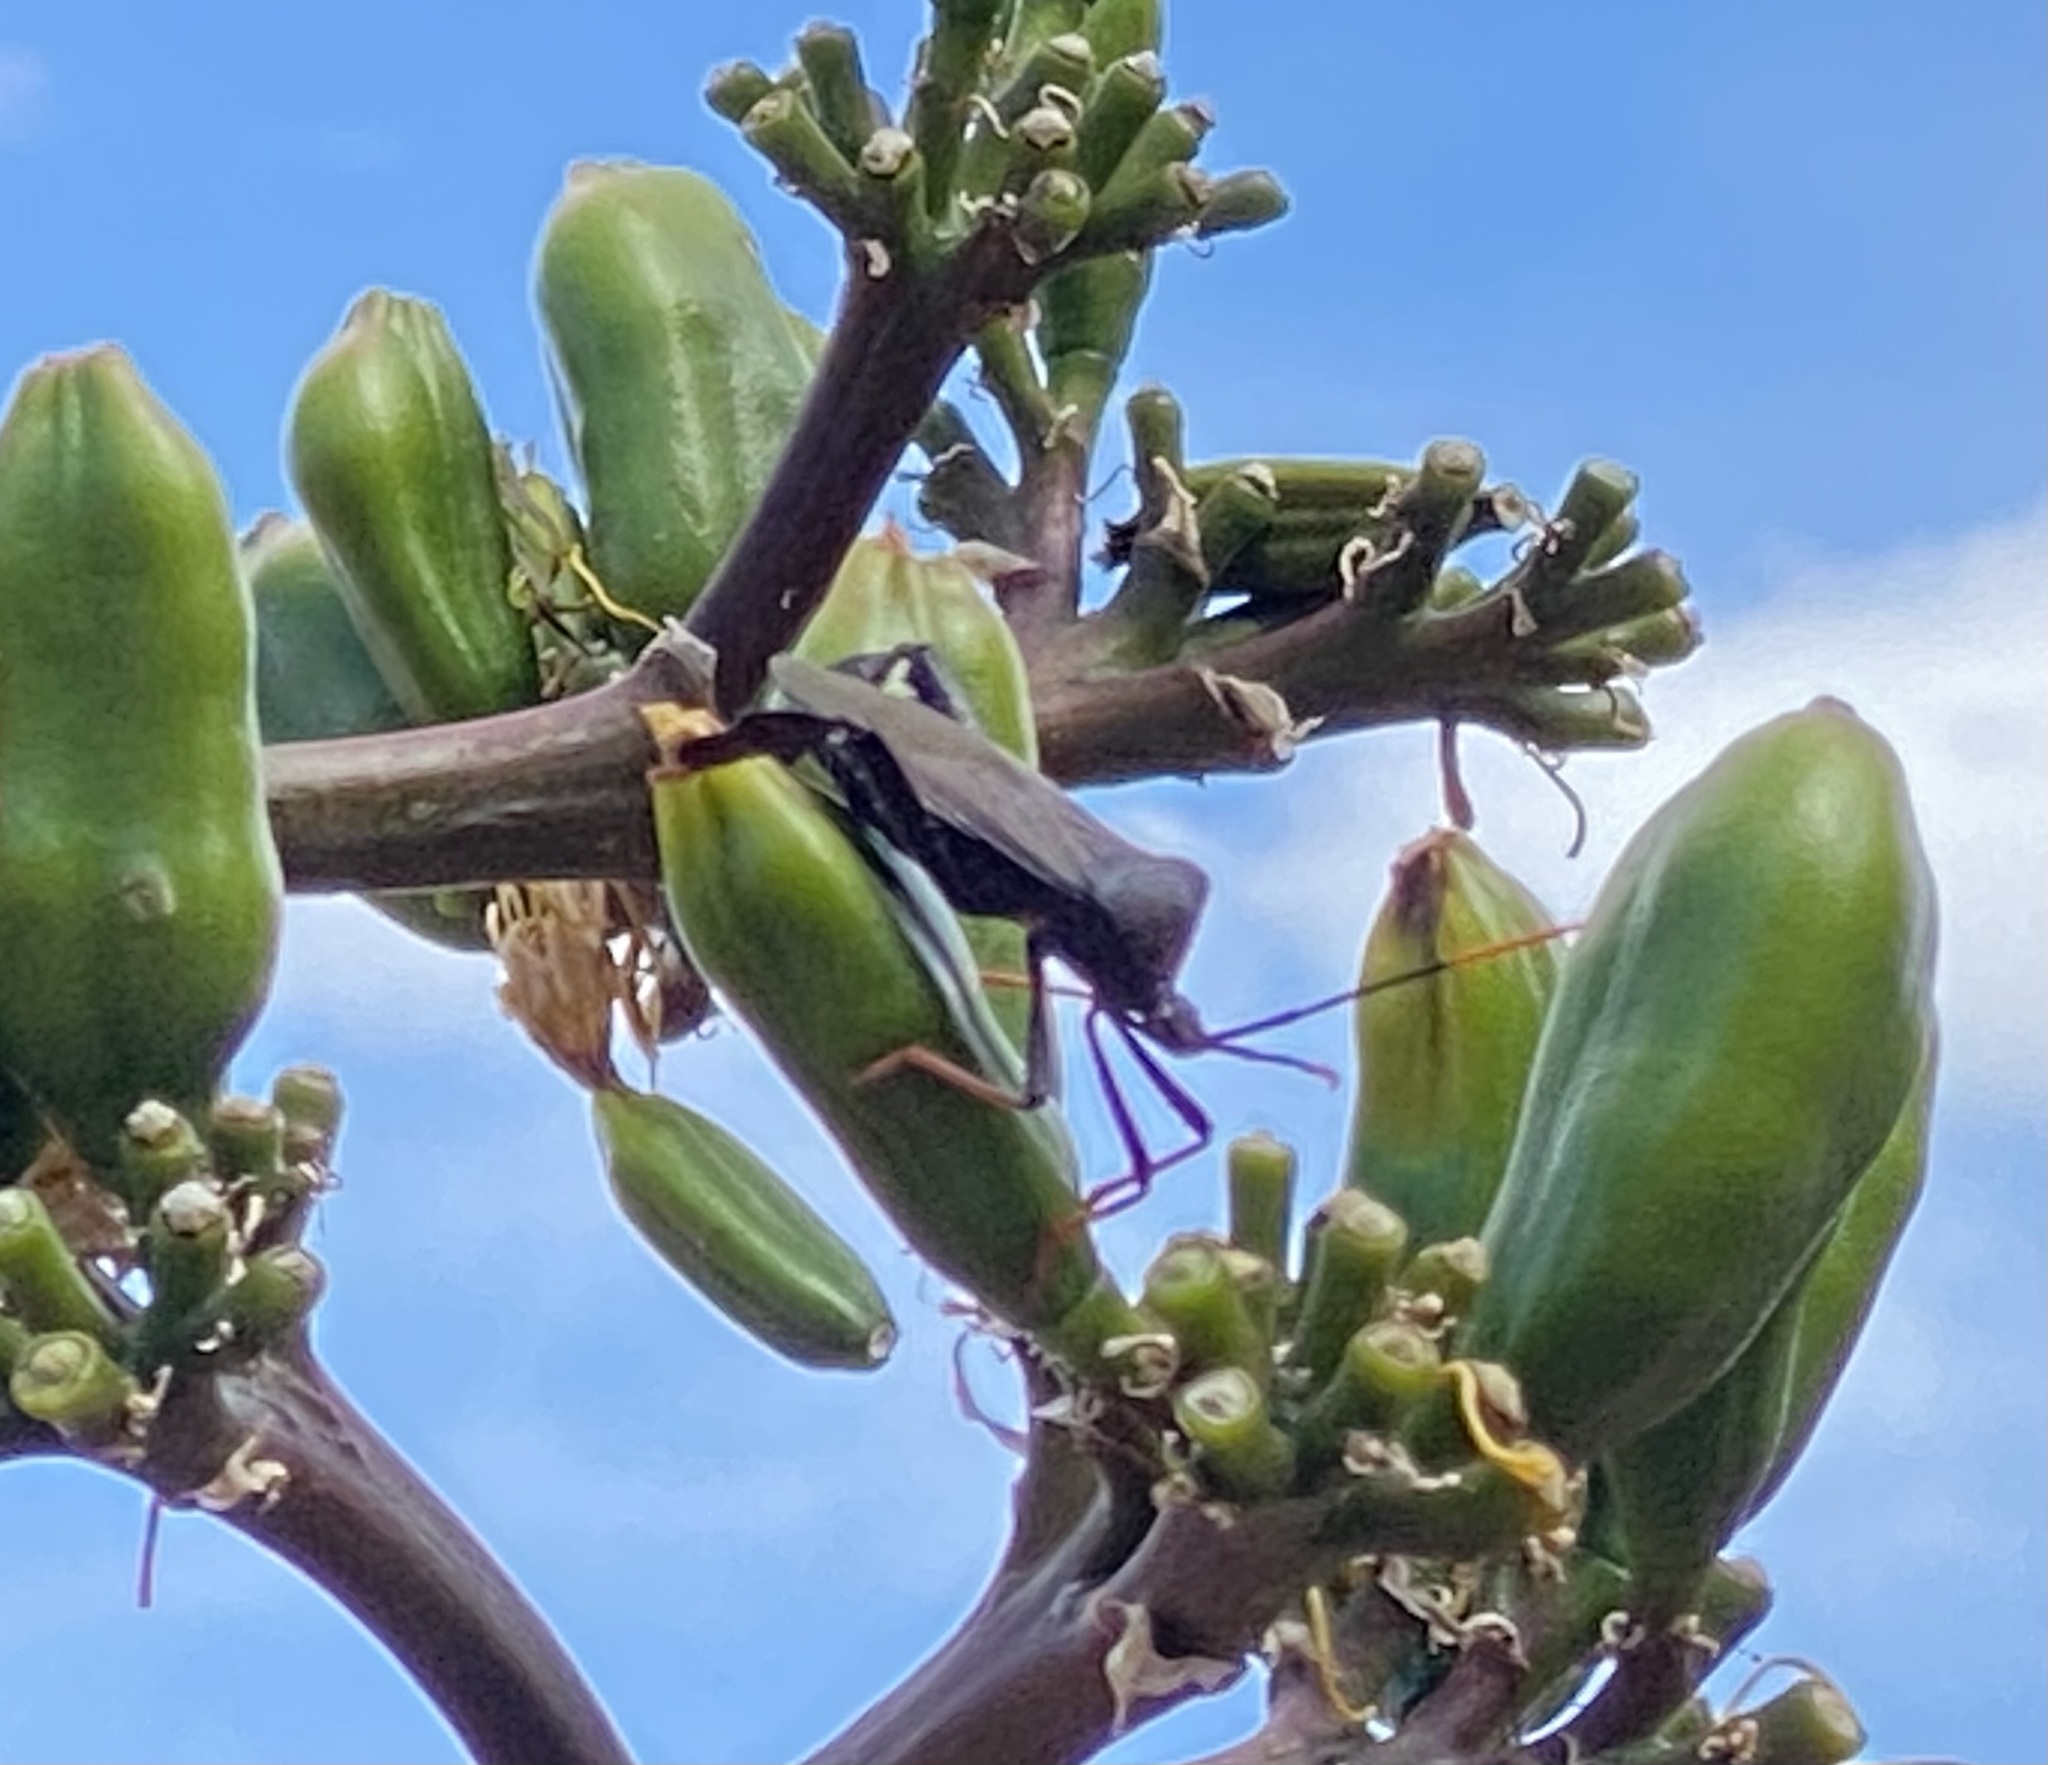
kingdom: Animalia
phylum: Arthropoda
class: Insecta
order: Hemiptera
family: Coreidae
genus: Acanthocephala
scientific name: Acanthocephala thomasi
